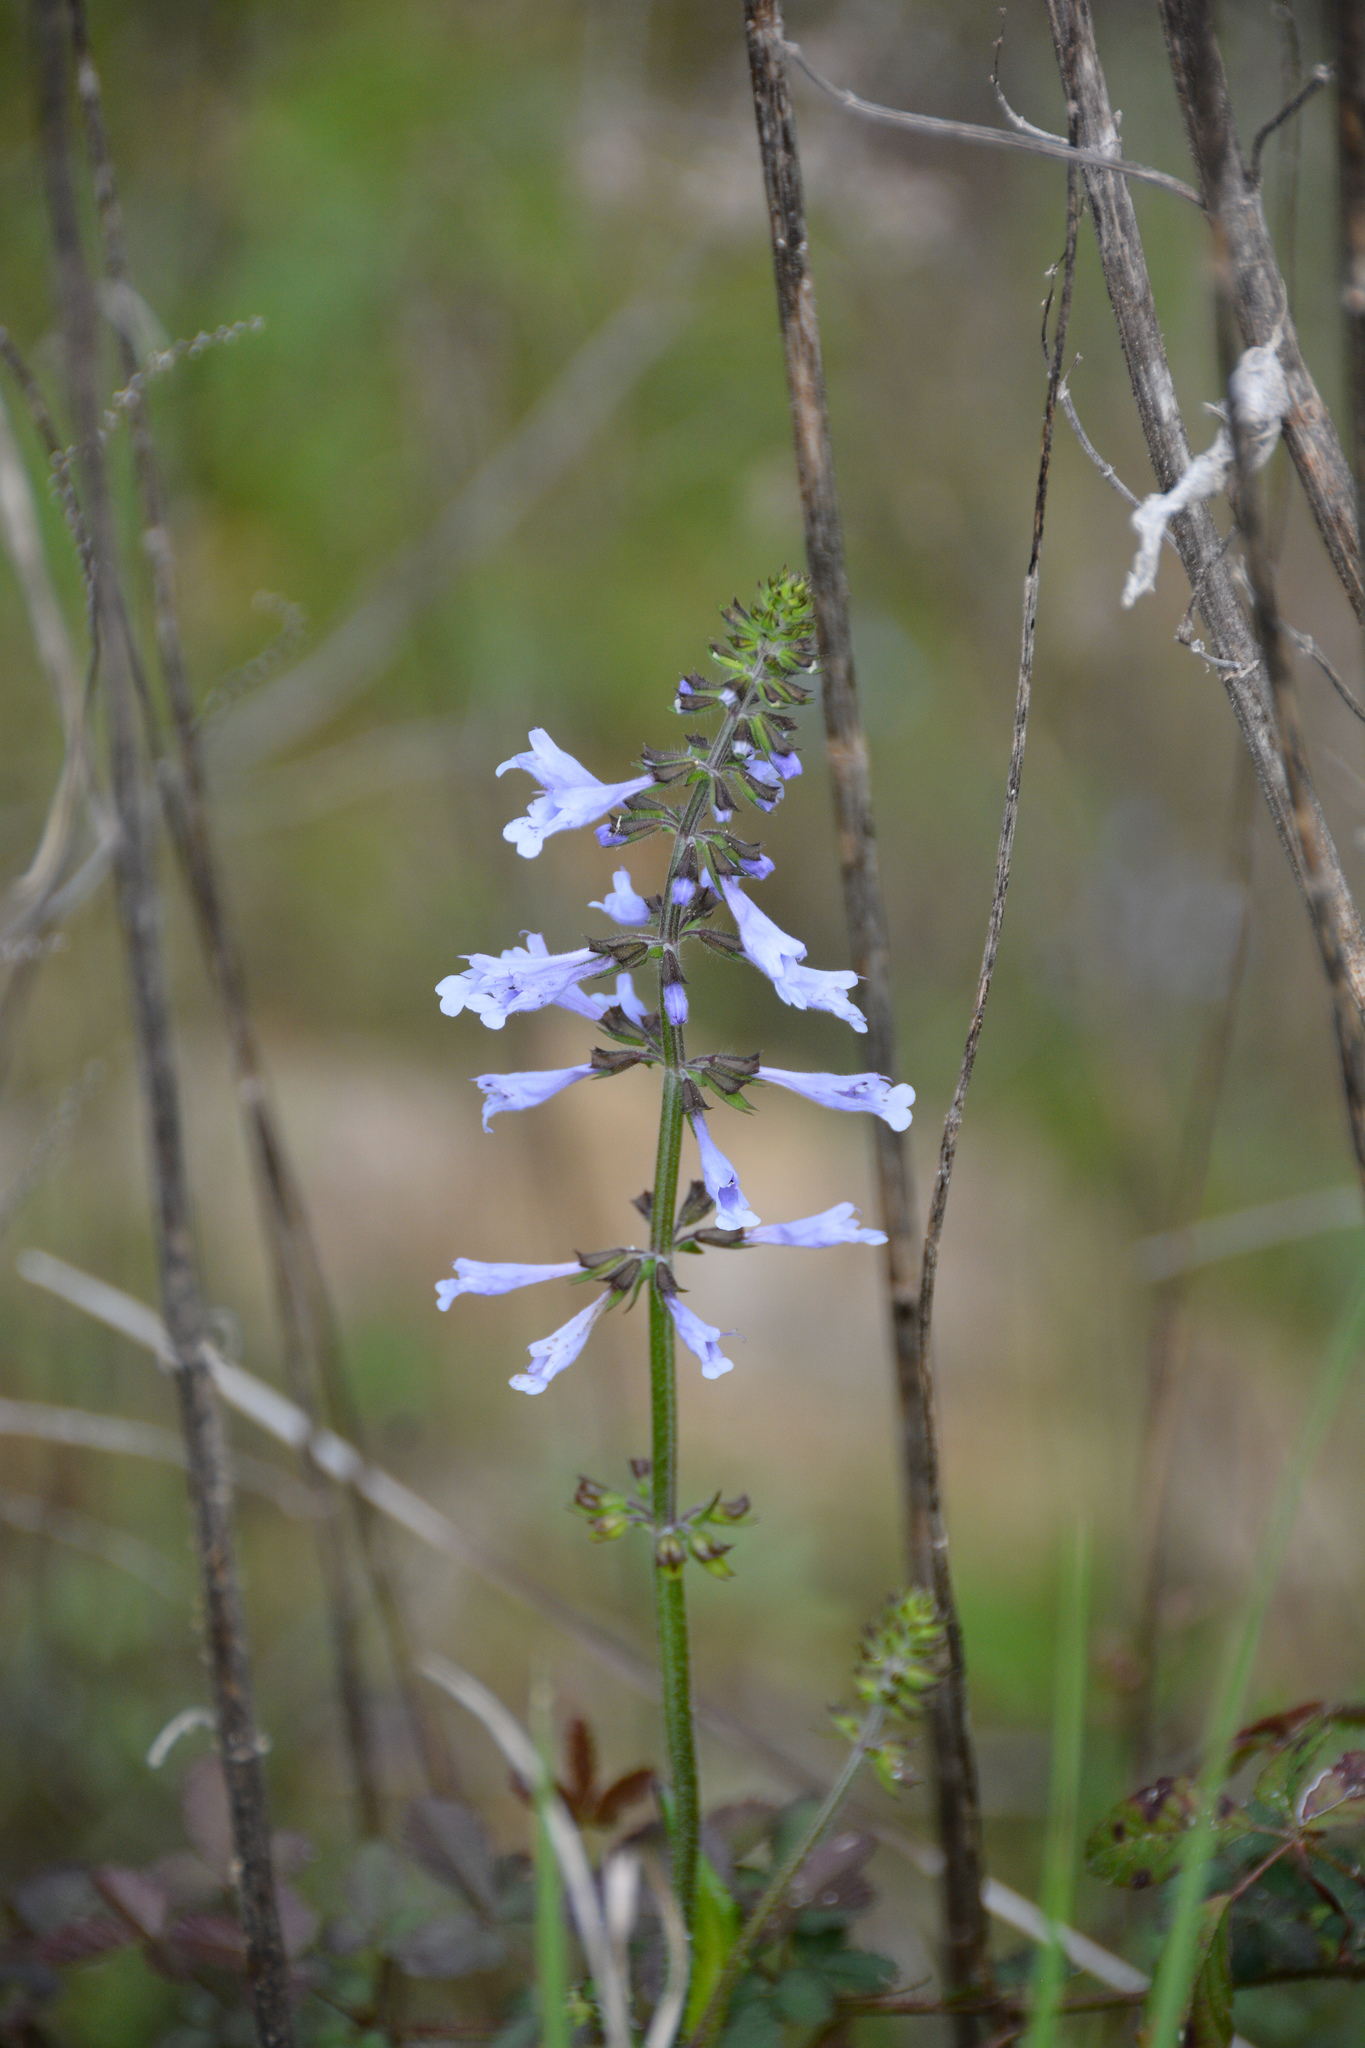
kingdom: Plantae
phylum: Tracheophyta
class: Magnoliopsida
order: Lamiales
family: Lamiaceae
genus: Salvia
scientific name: Salvia lyrata
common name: Cancerweed
